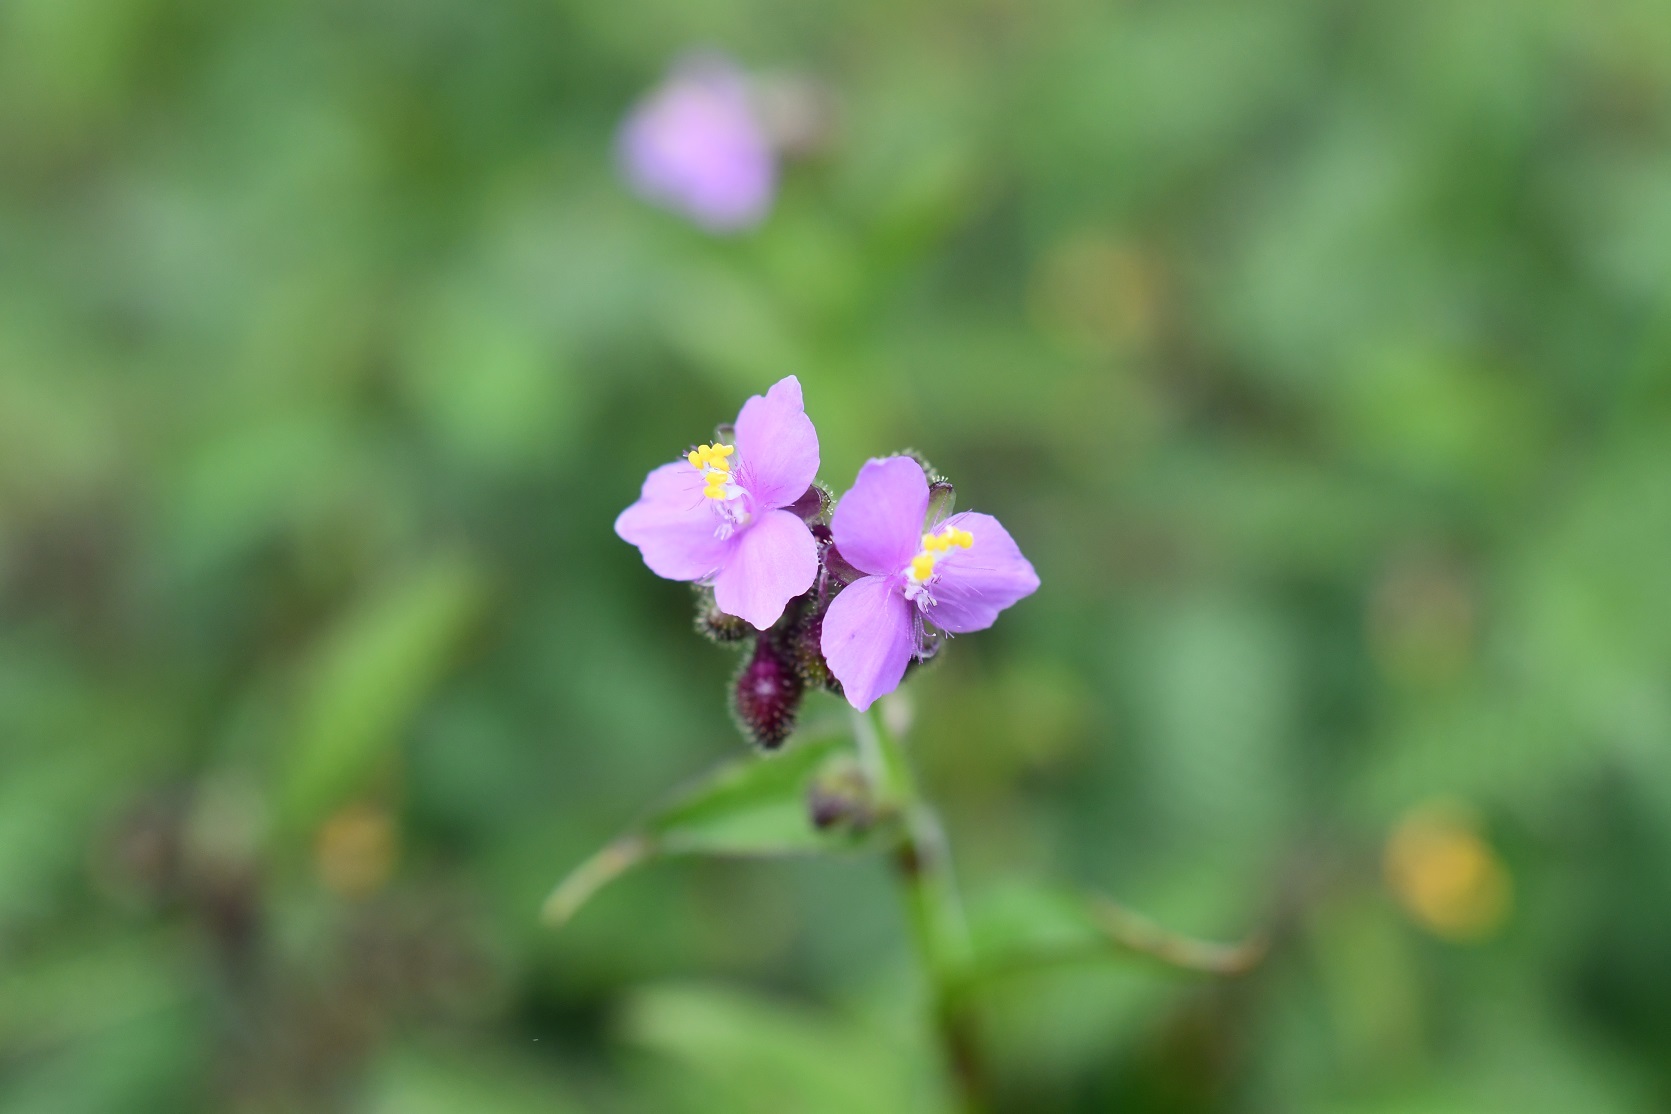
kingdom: Plantae
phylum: Tracheophyta
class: Liliopsida
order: Commelinales
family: Commelinaceae
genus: Callisia
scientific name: Callisia purpurascens
